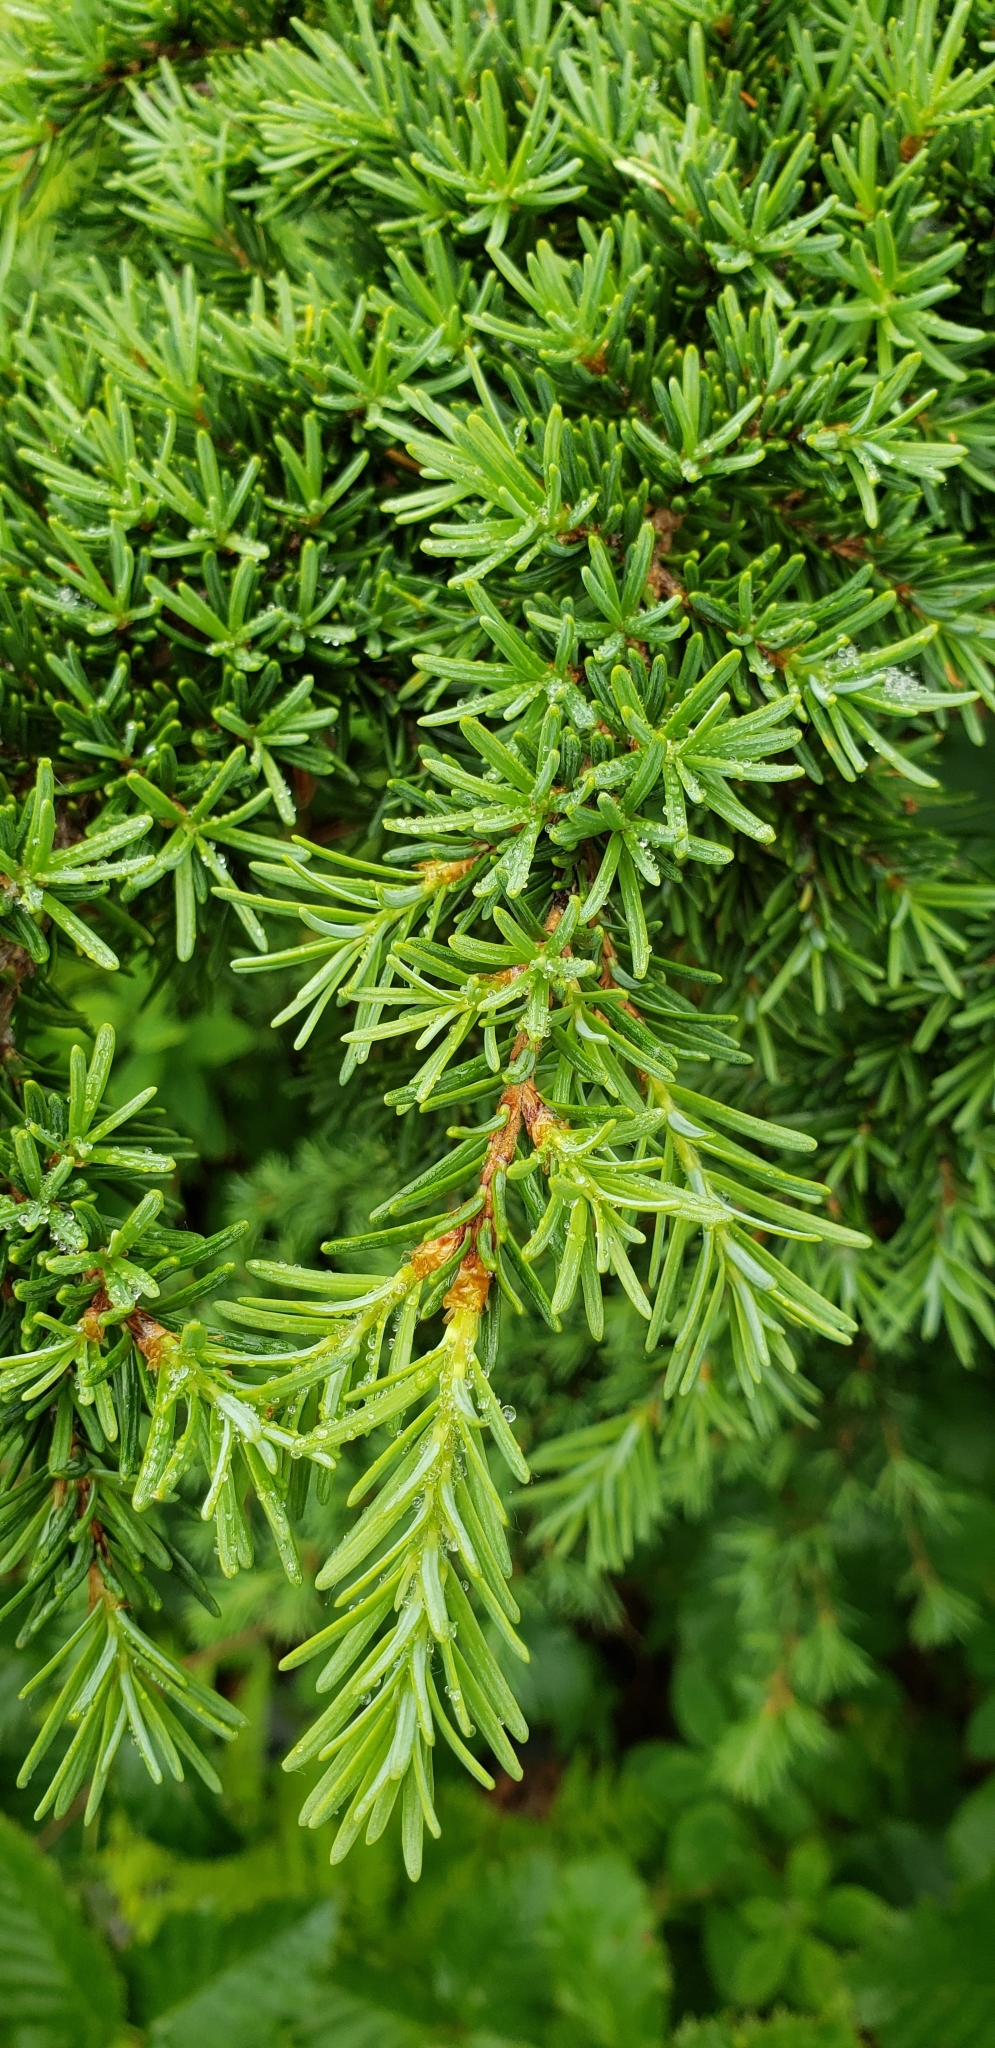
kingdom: Plantae
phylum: Tracheophyta
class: Pinopsida
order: Pinales
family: Pinaceae
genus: Tsuga
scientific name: Tsuga mertensiana
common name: Mountain hemlock
